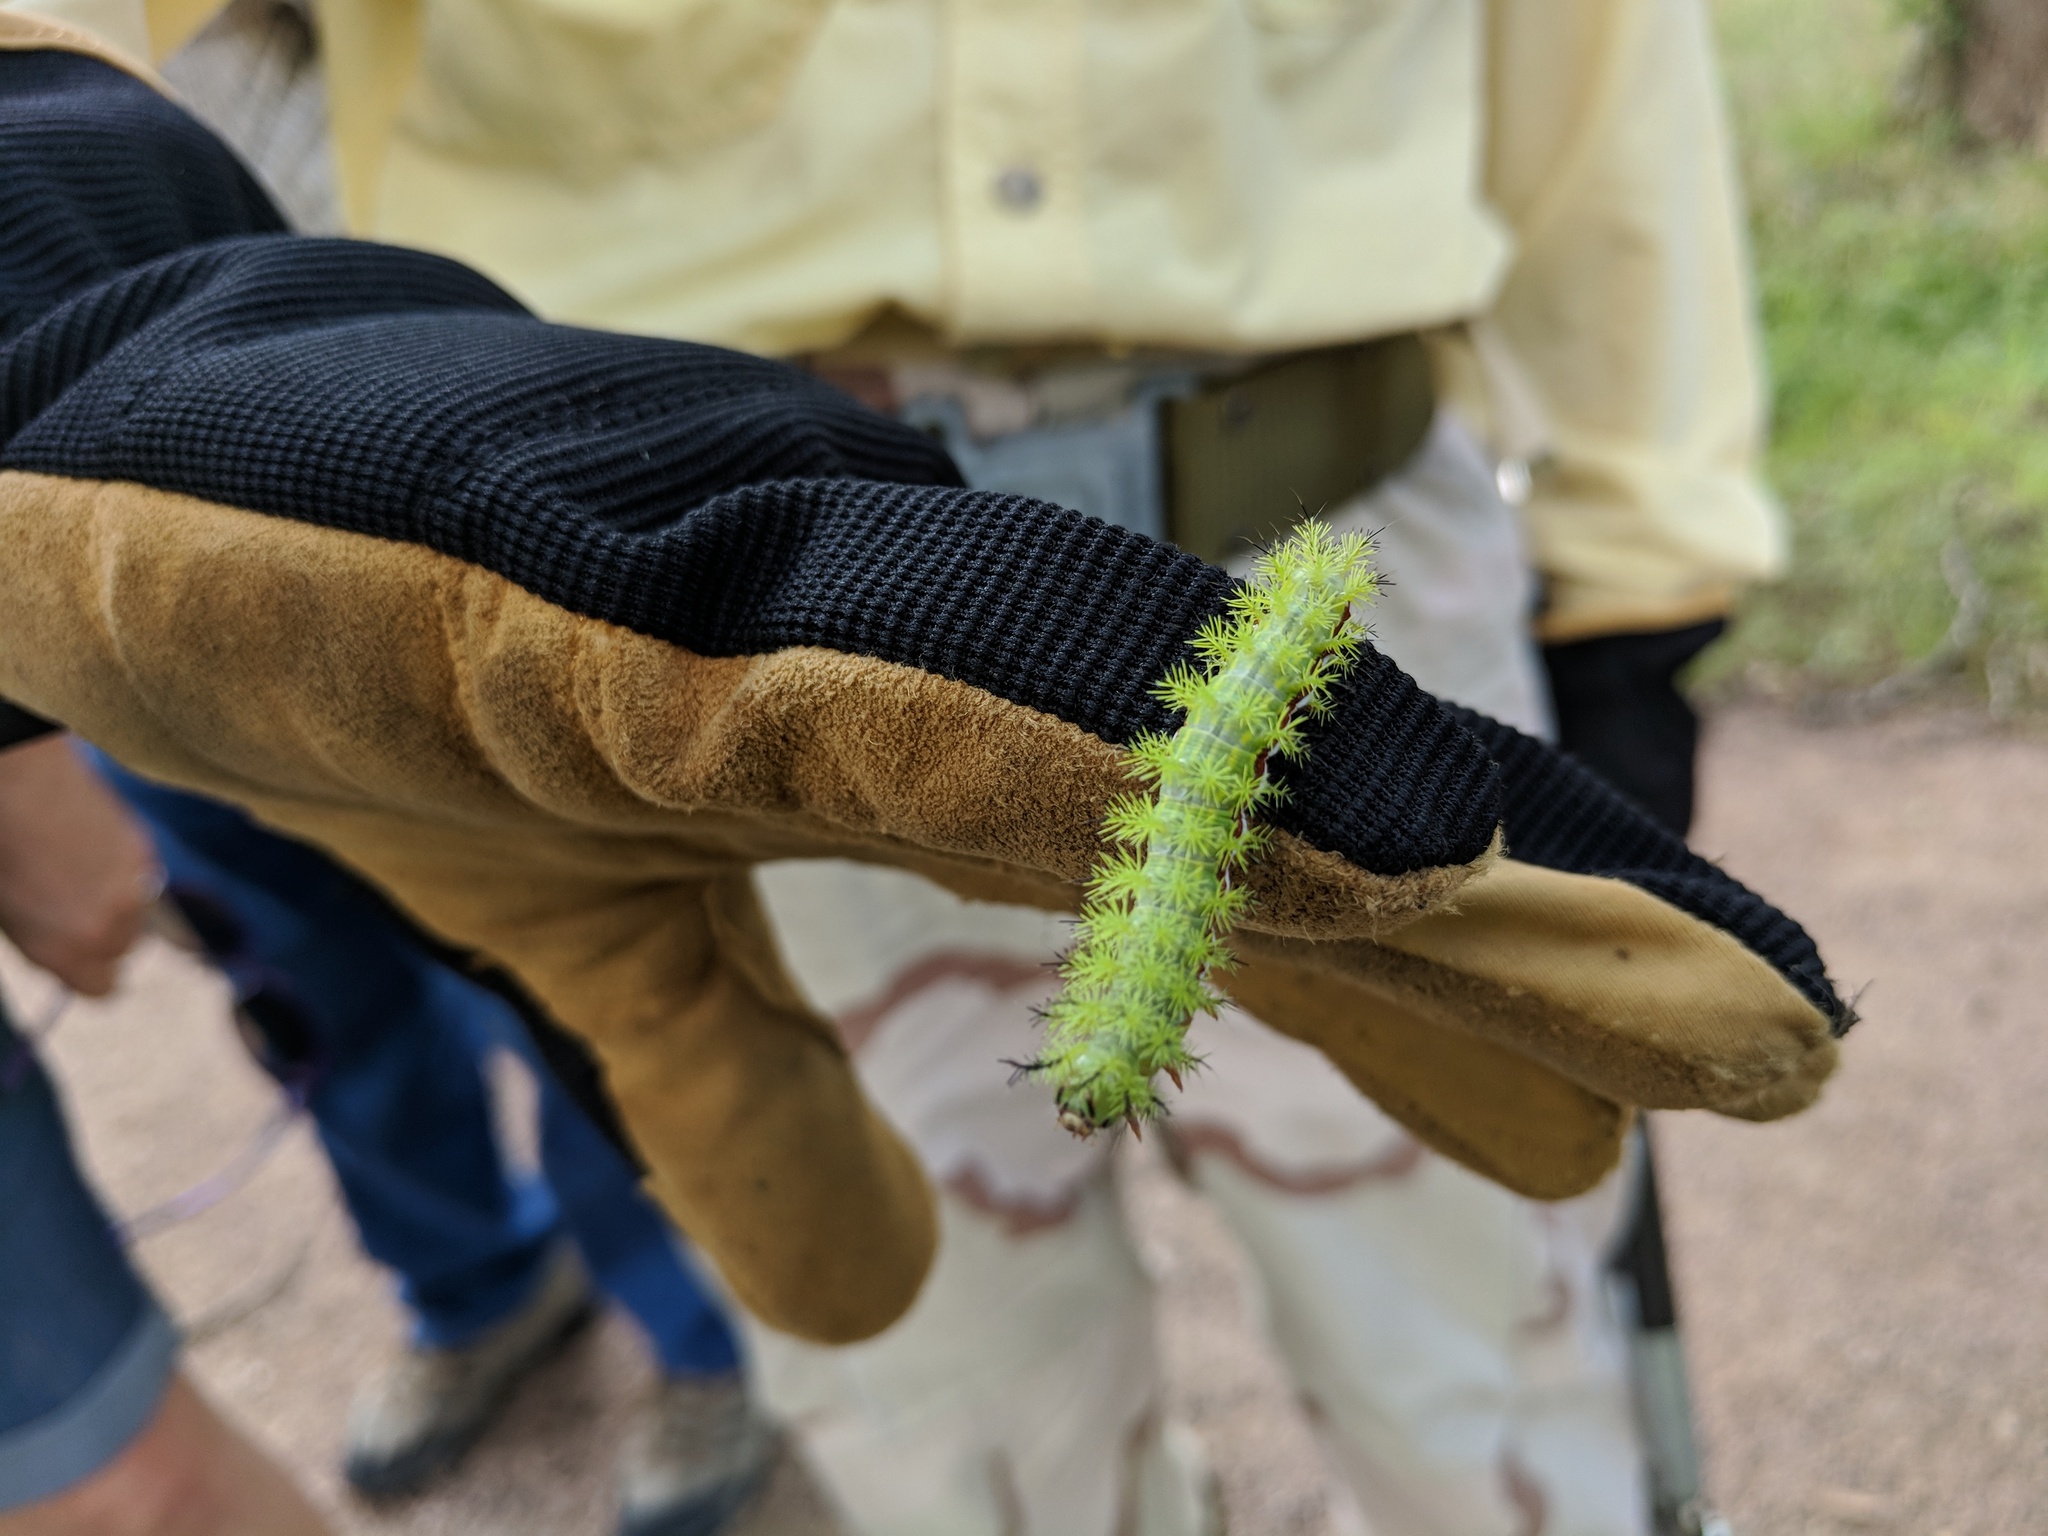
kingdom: Animalia
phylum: Arthropoda
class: Insecta
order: Lepidoptera
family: Saturniidae
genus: Automeris
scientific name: Automeris io
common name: Io moth
